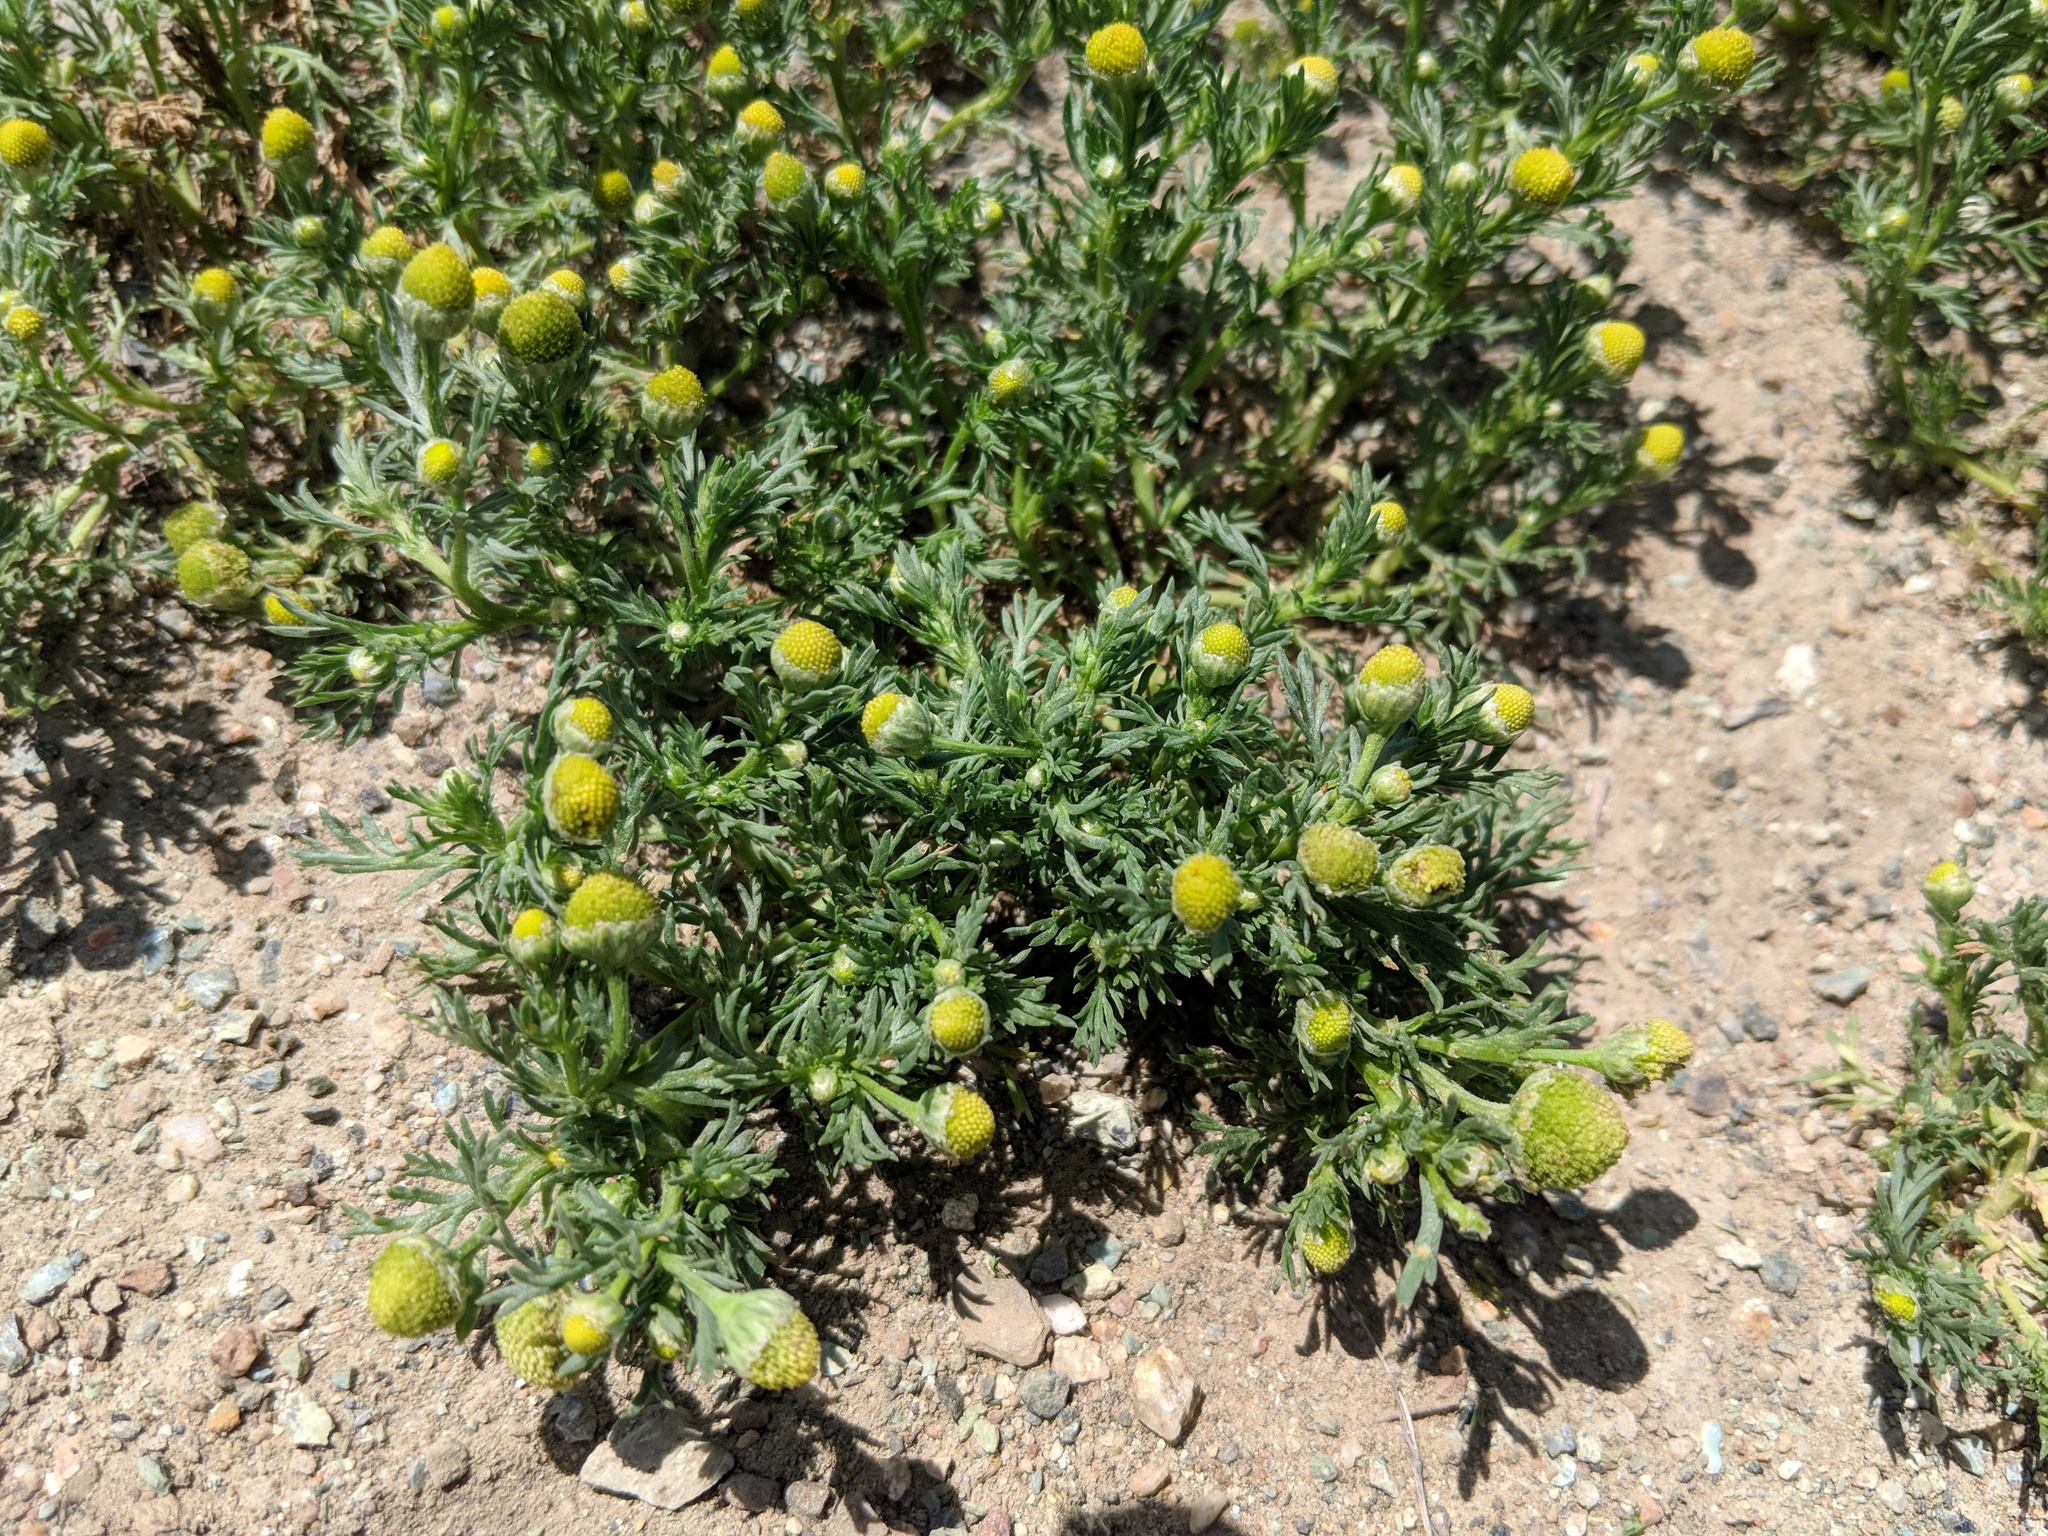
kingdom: Plantae
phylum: Tracheophyta
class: Magnoliopsida
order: Asterales
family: Asteraceae
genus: Matricaria
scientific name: Matricaria discoidea
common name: Disc mayweed
